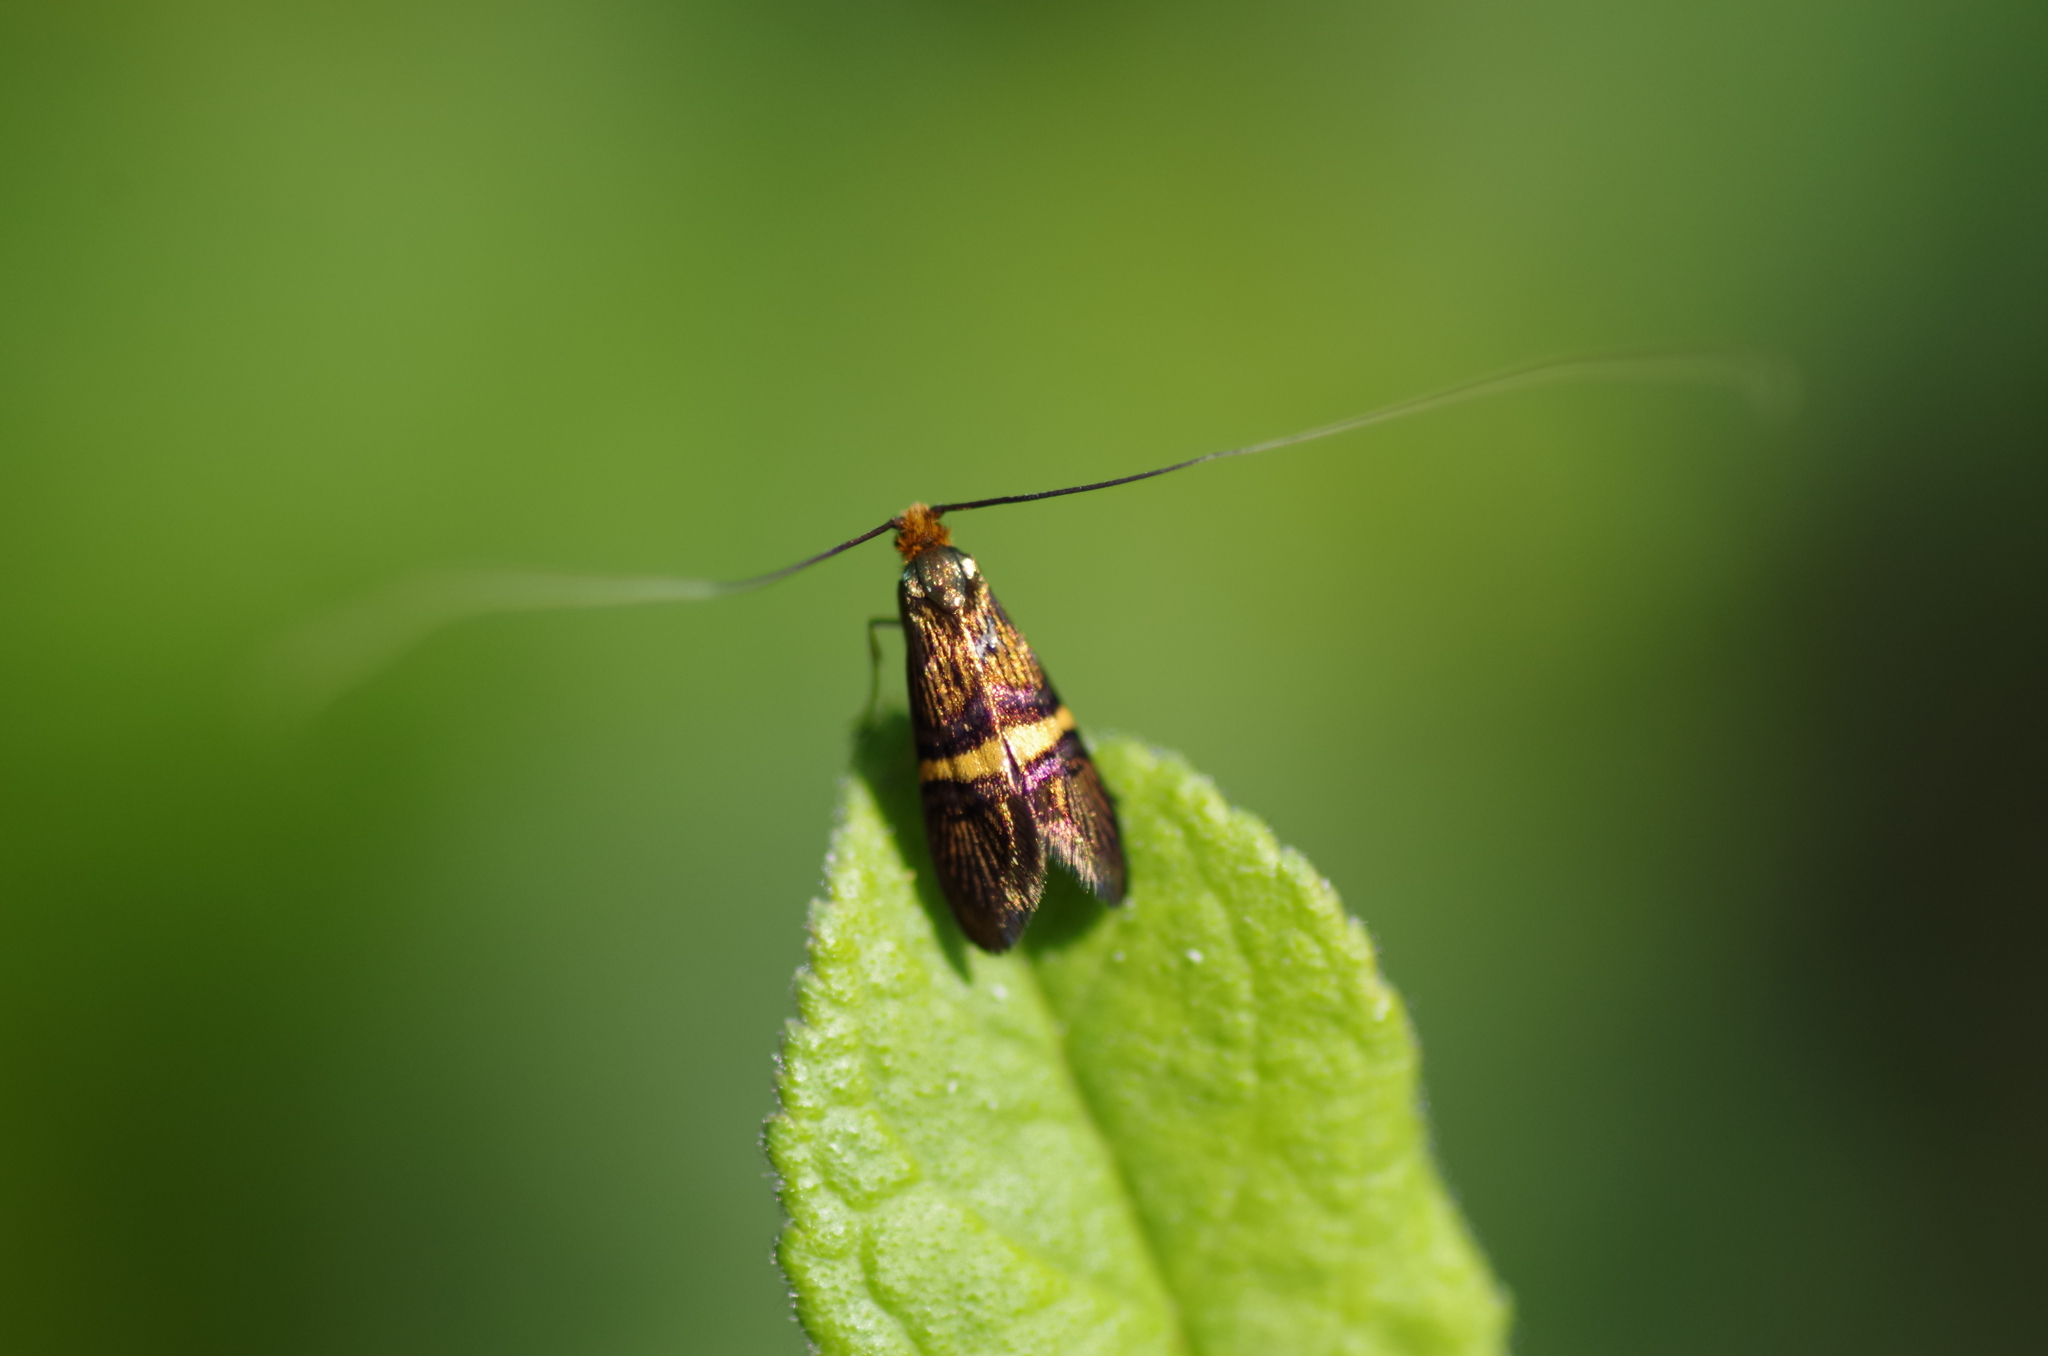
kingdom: Animalia
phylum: Arthropoda
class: Insecta
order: Lepidoptera
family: Adelidae
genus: Adela
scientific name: Adela croesella
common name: Small barred long-horn
